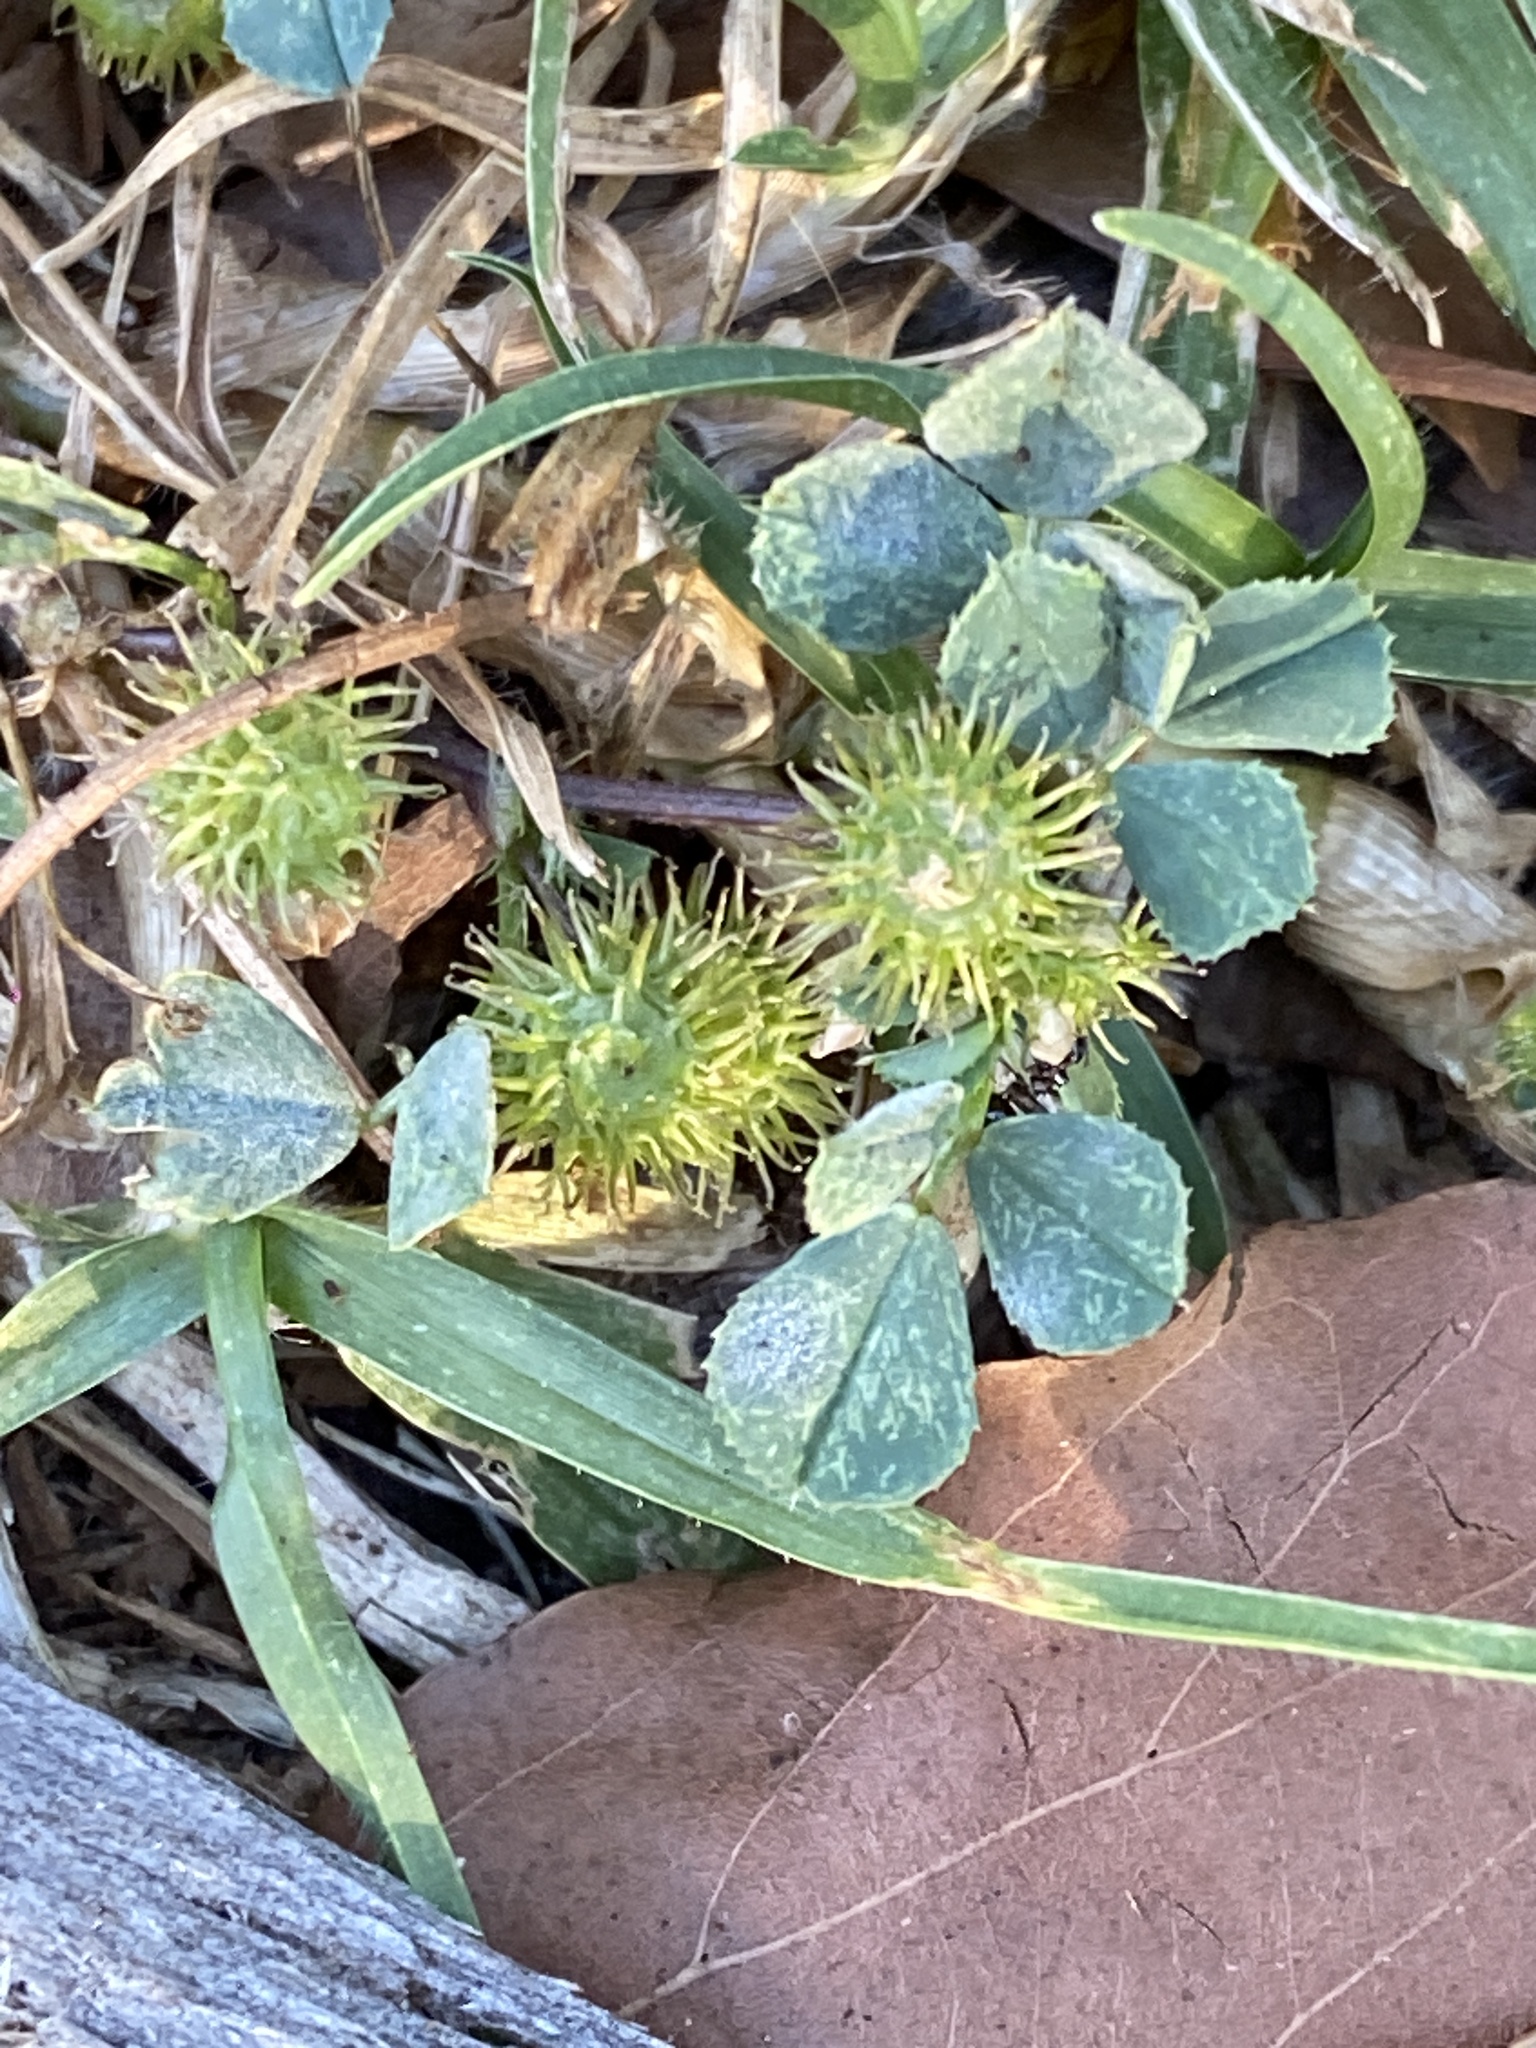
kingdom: Plantae
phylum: Tracheophyta
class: Magnoliopsida
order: Fabales
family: Fabaceae
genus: Medicago
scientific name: Medicago polymorpha
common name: Burclover
